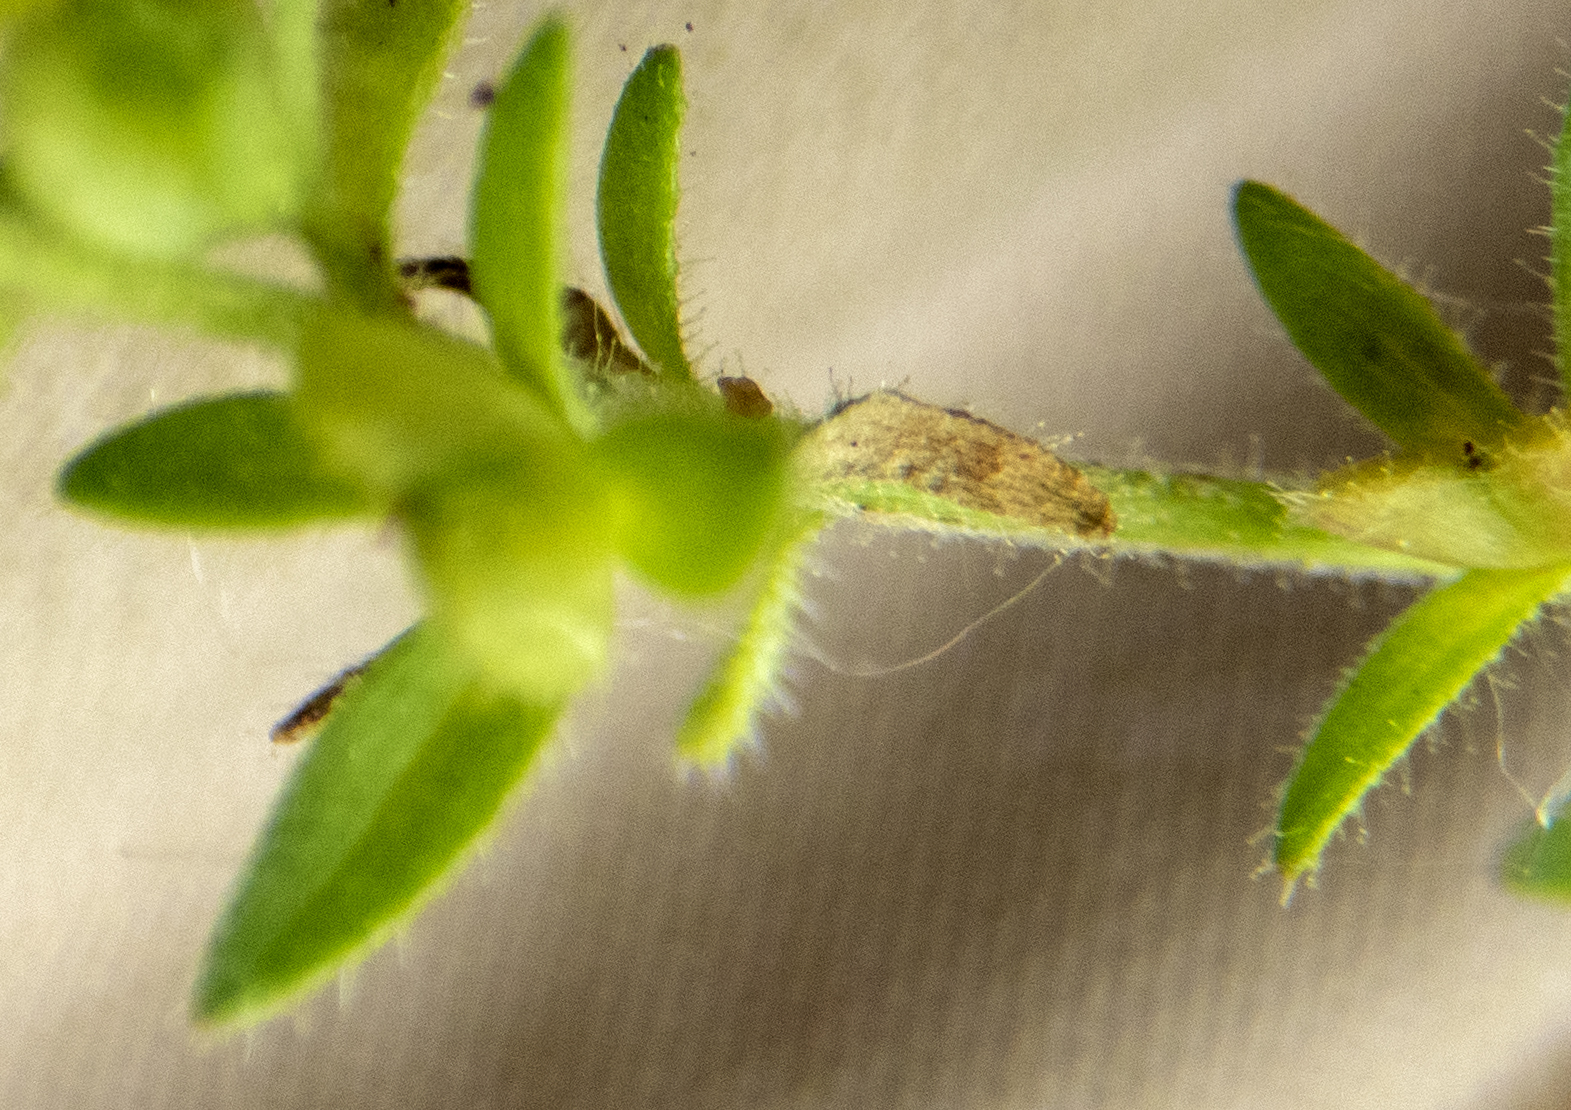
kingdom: Plantae
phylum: Tracheophyta
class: Magnoliopsida
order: Lamiales
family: Plantaginaceae
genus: Veronica
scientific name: Veronica arvensis
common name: Corn speedwell
